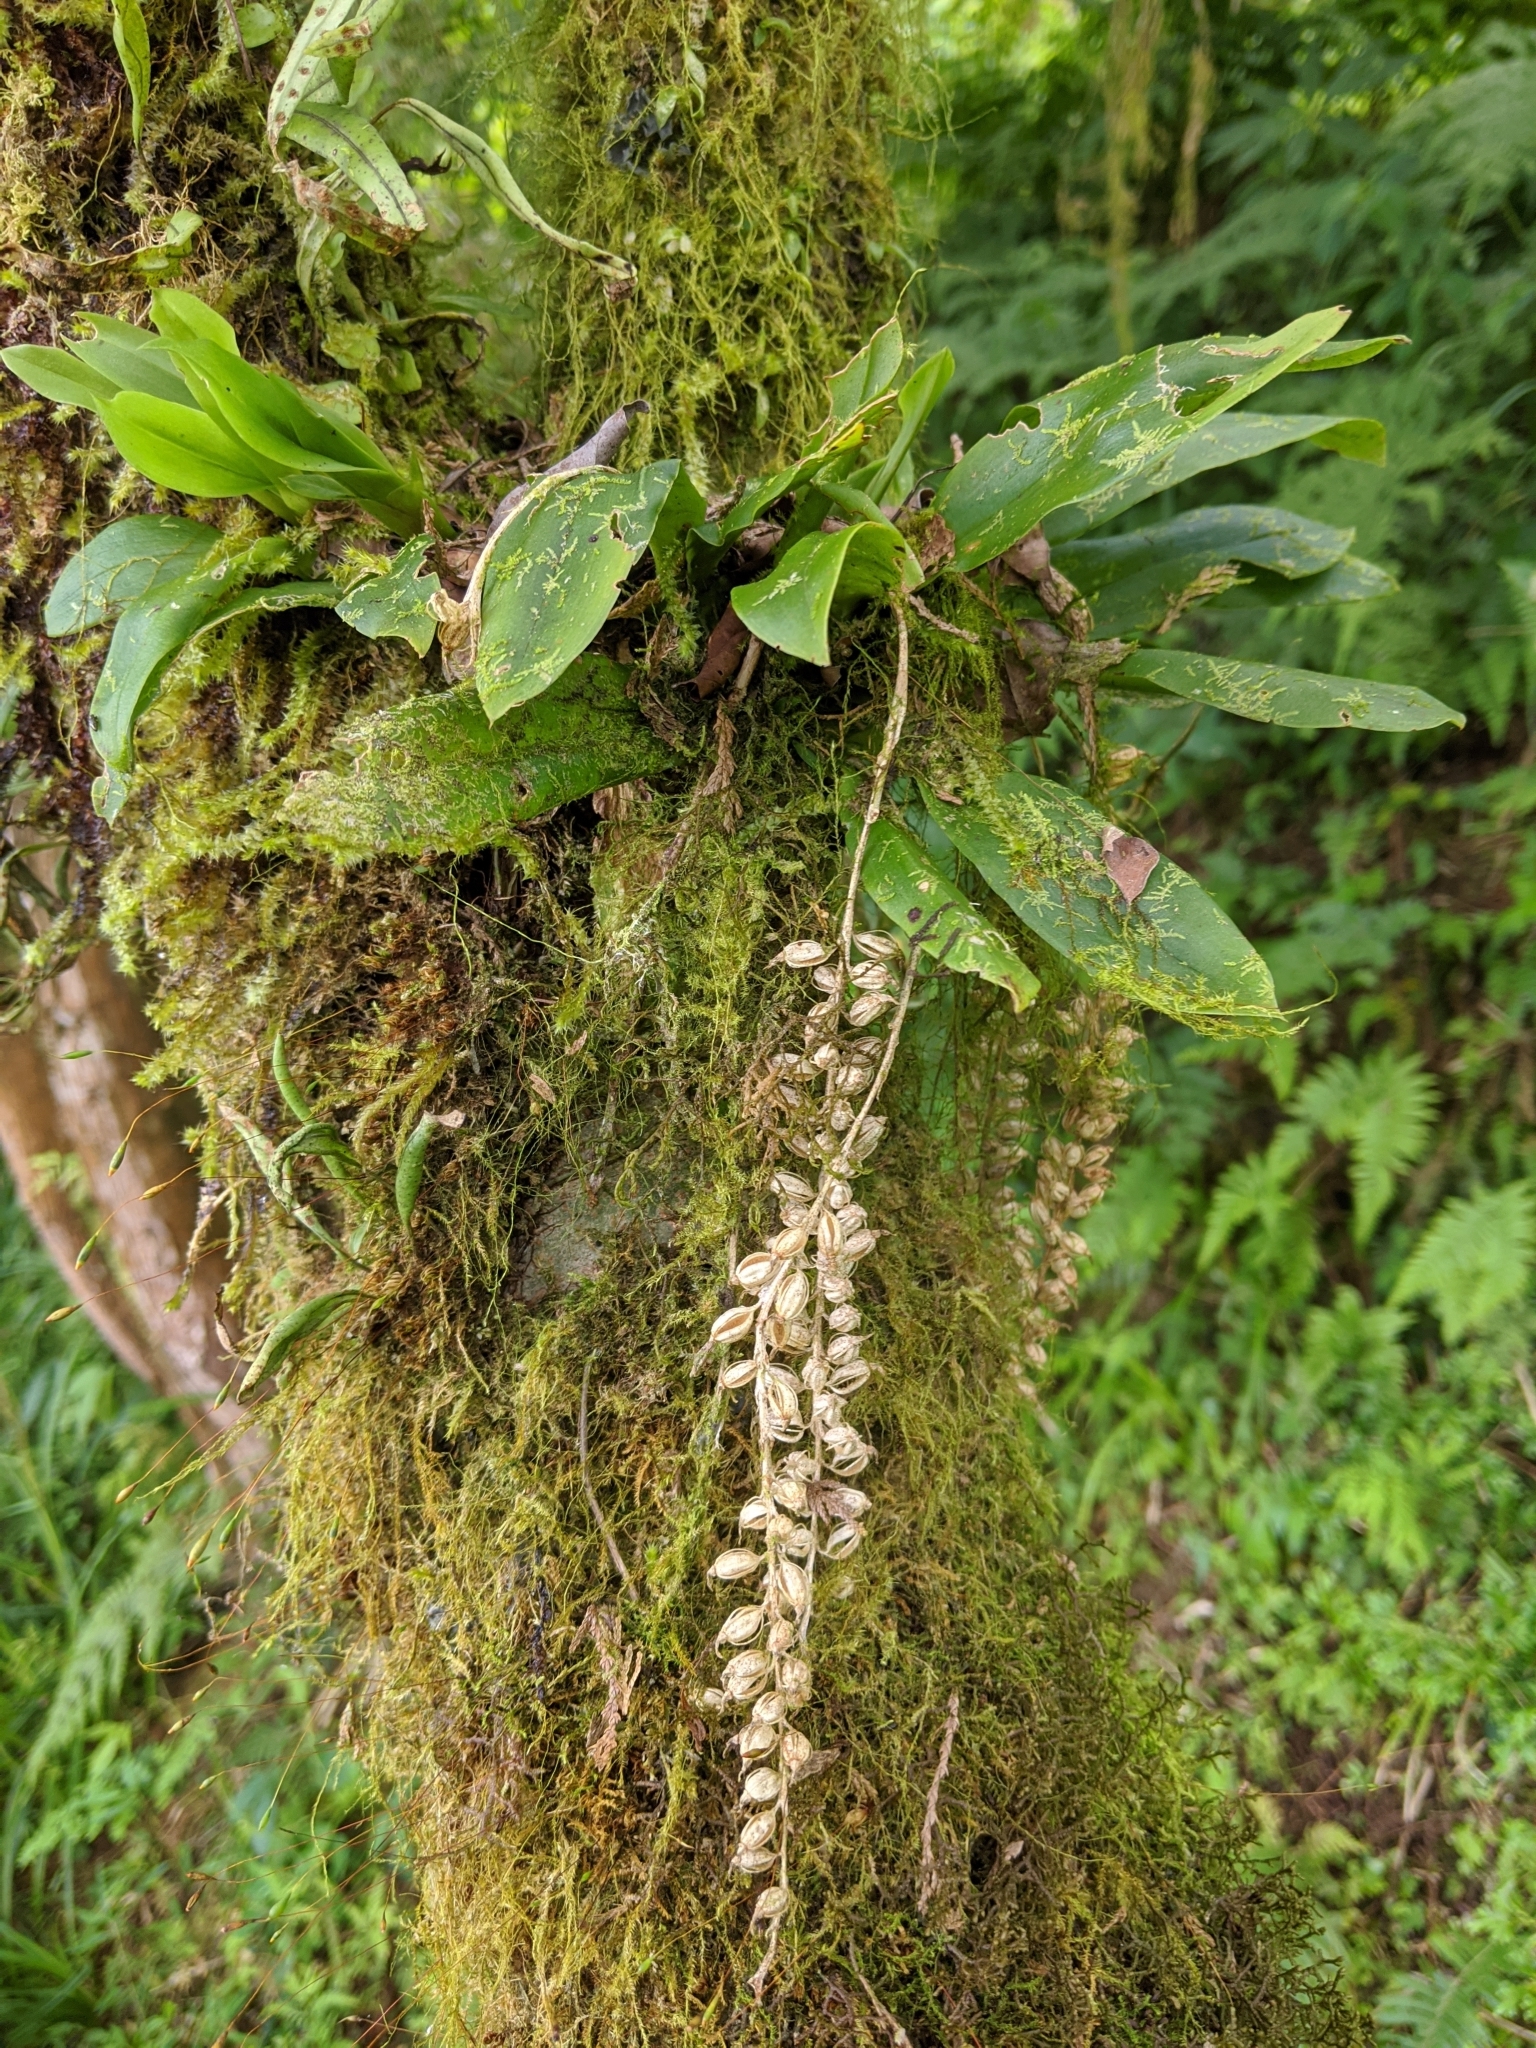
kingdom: Plantae
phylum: Tracheophyta
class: Liliopsida
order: Asparagales
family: Orchidaceae
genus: Liparis
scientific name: Liparis elliptica
